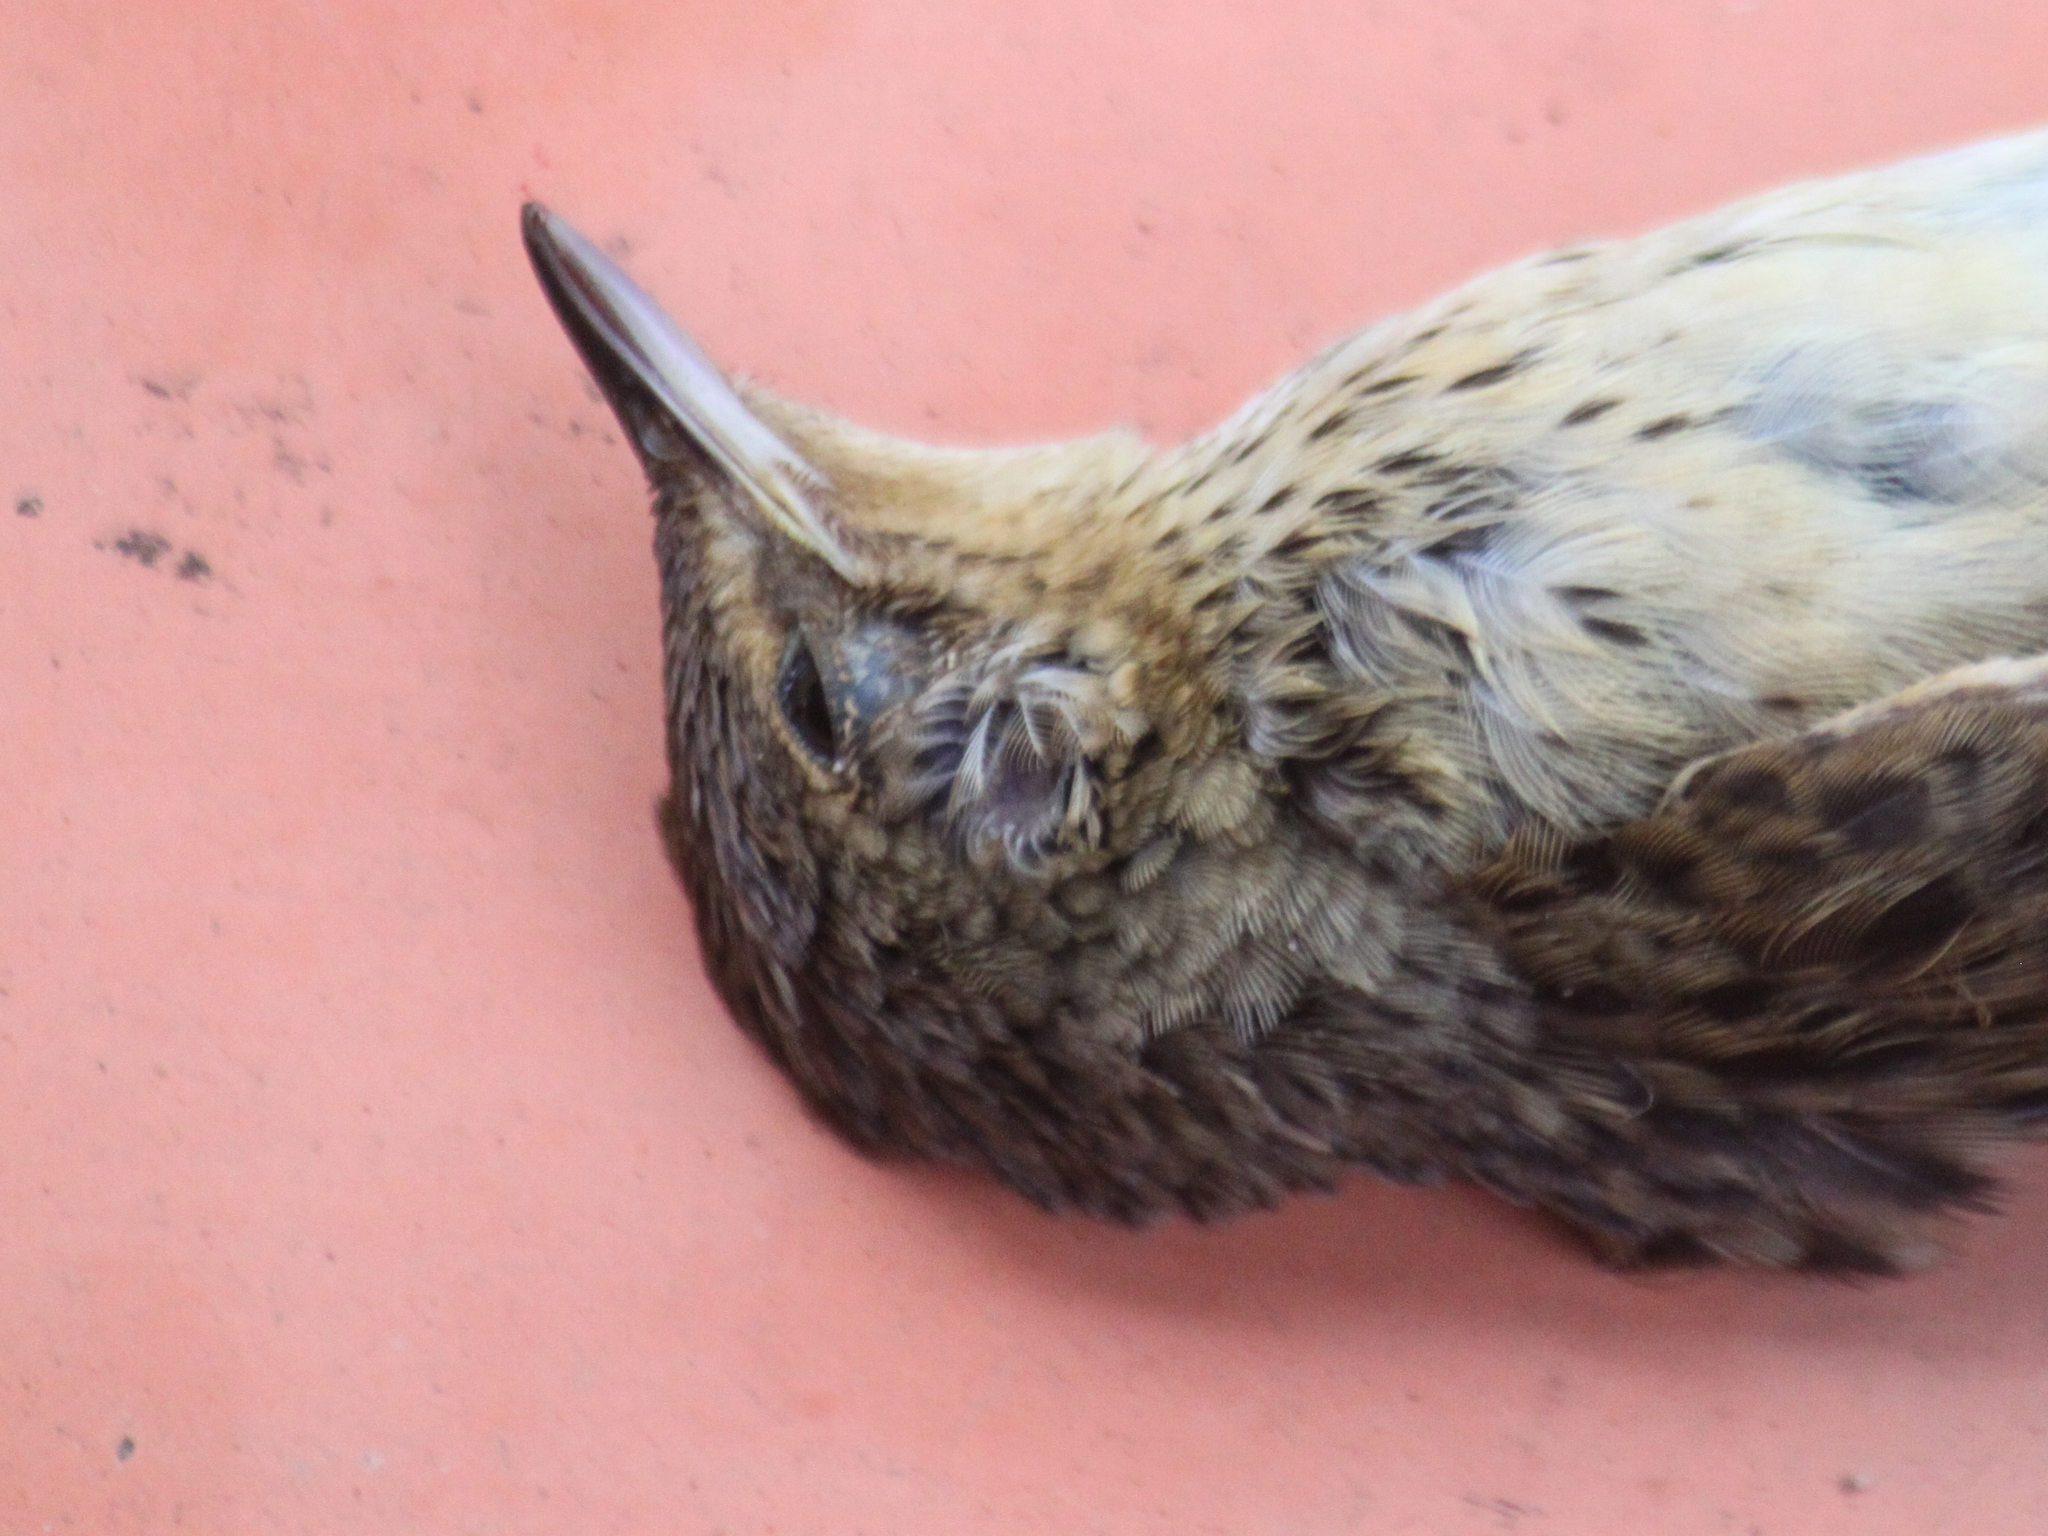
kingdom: Animalia
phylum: Chordata
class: Aves
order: Passeriformes
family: Locustellidae
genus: Locustella
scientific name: Locustella lanceolata
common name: Lanceolated warbler
